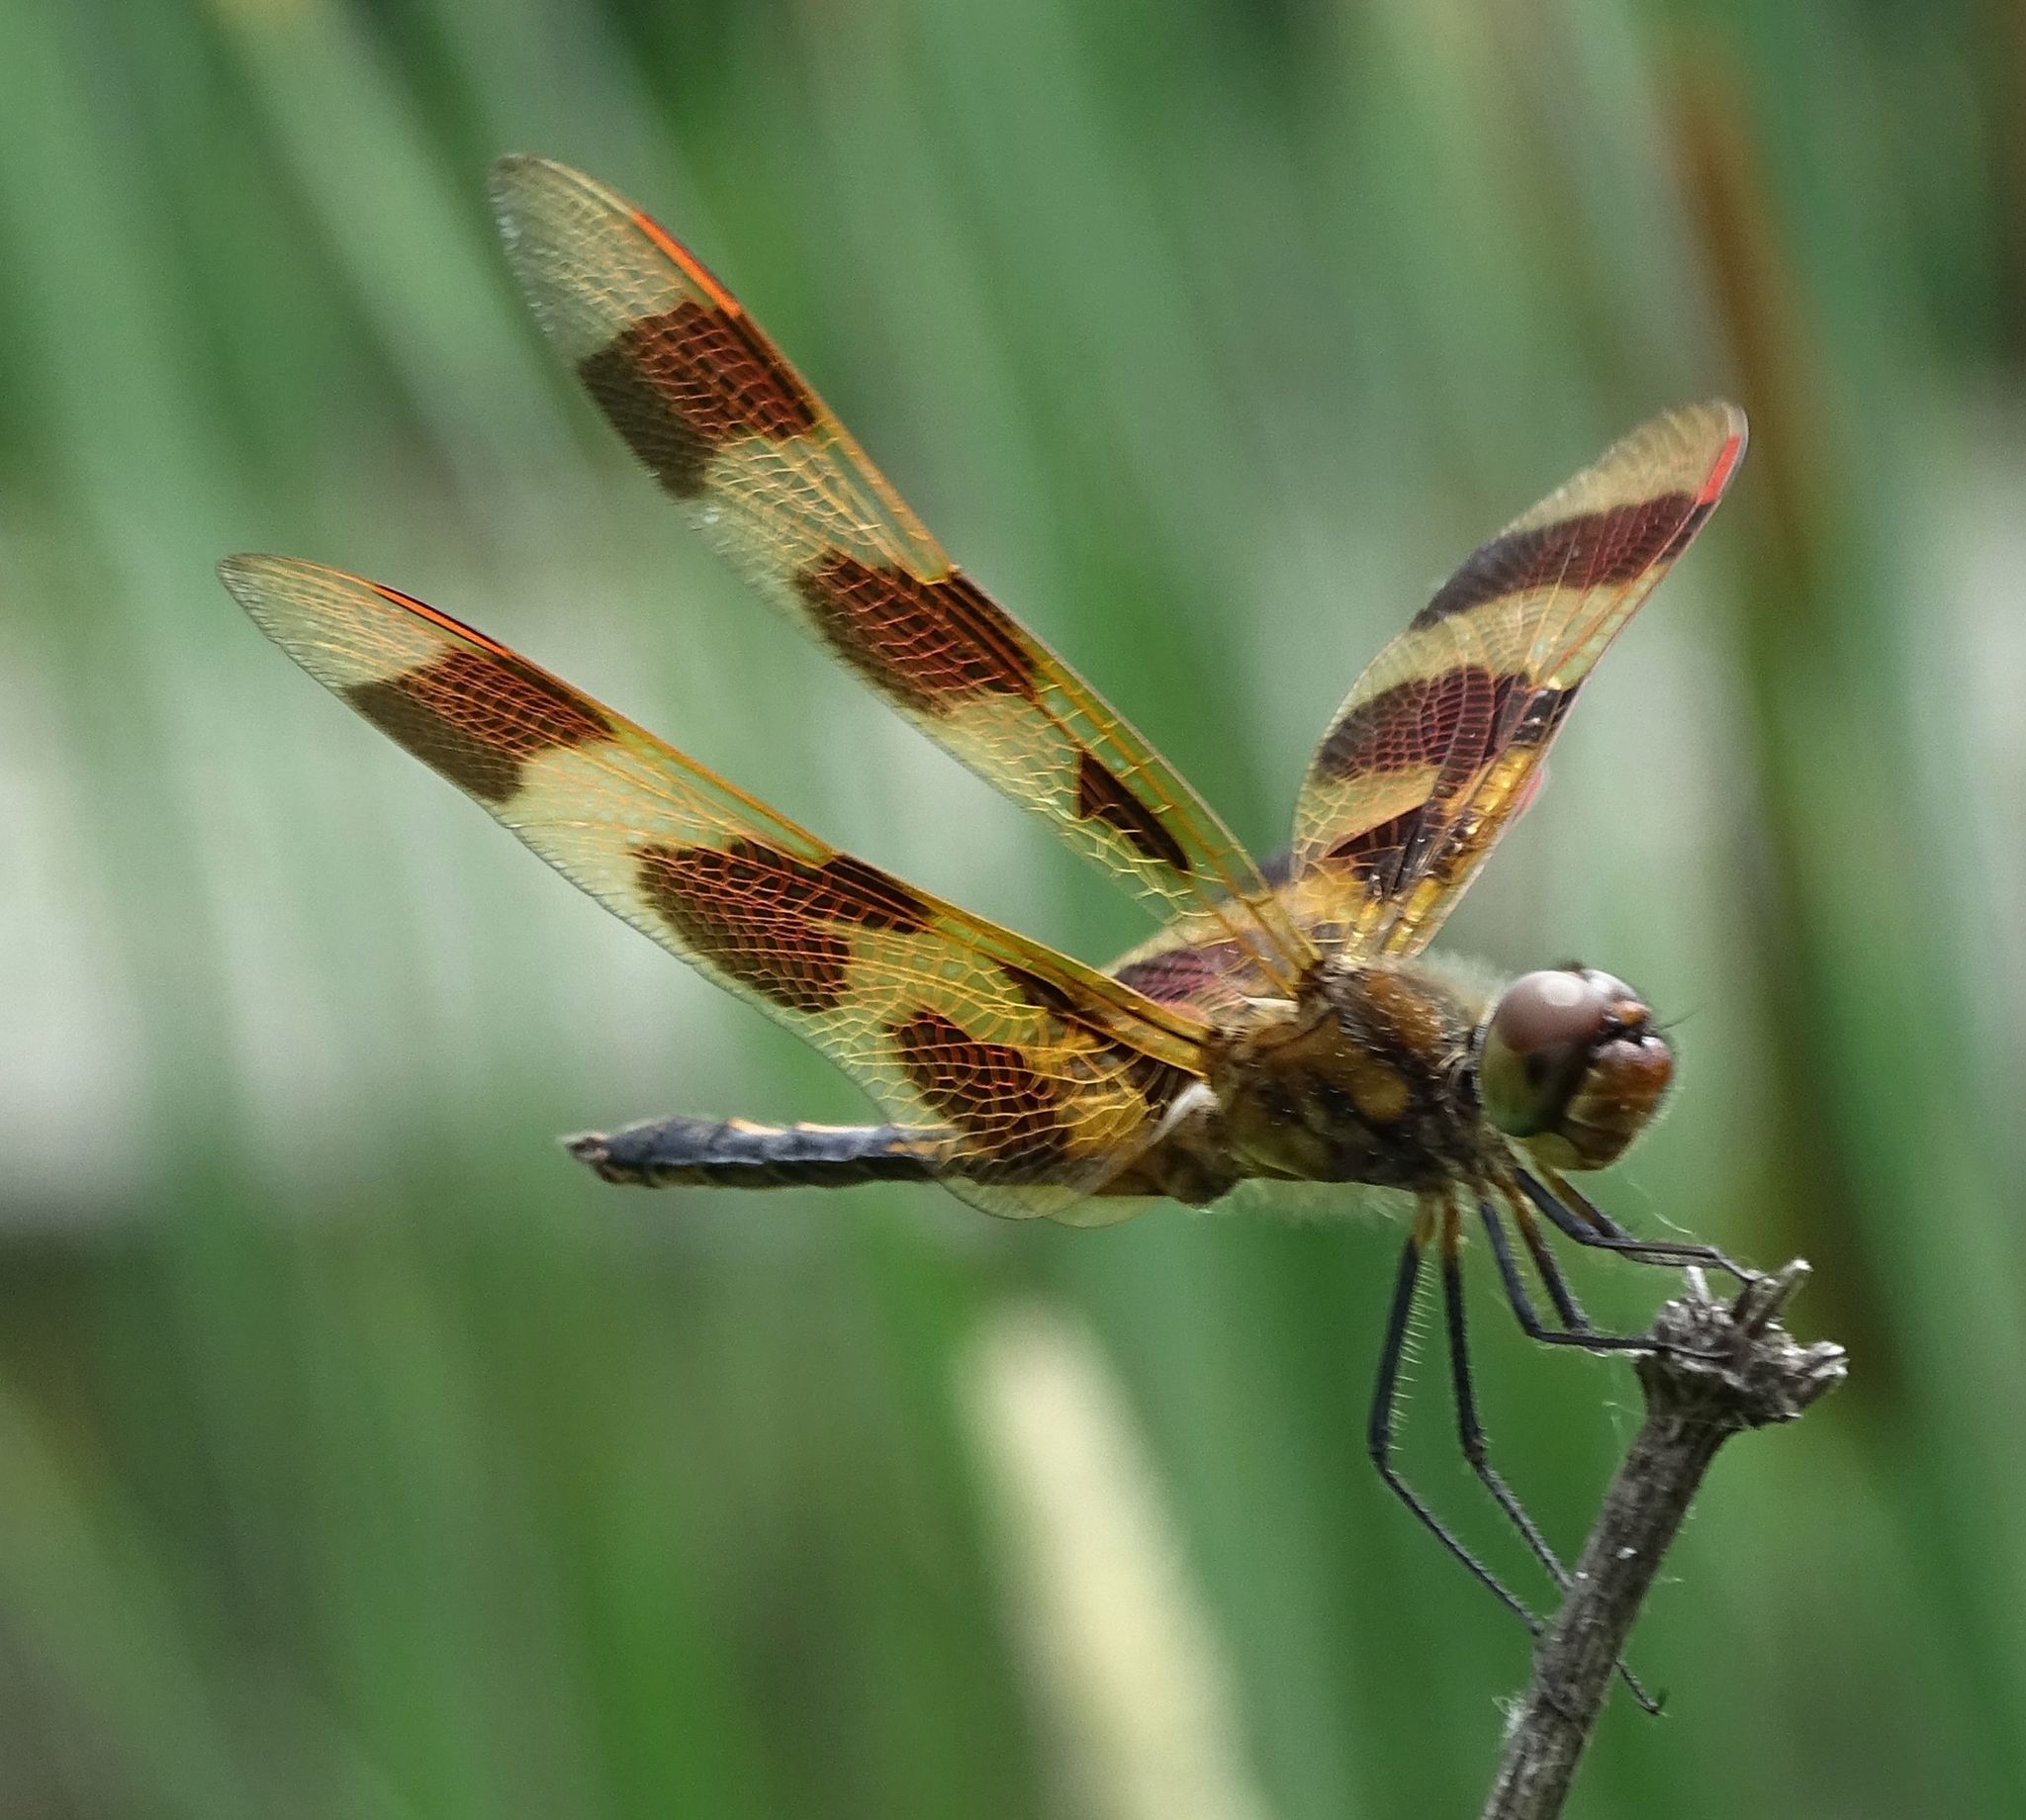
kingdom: Animalia
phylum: Arthropoda
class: Insecta
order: Odonata
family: Libellulidae
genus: Celithemis
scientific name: Celithemis eponina
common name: Halloween pennant
